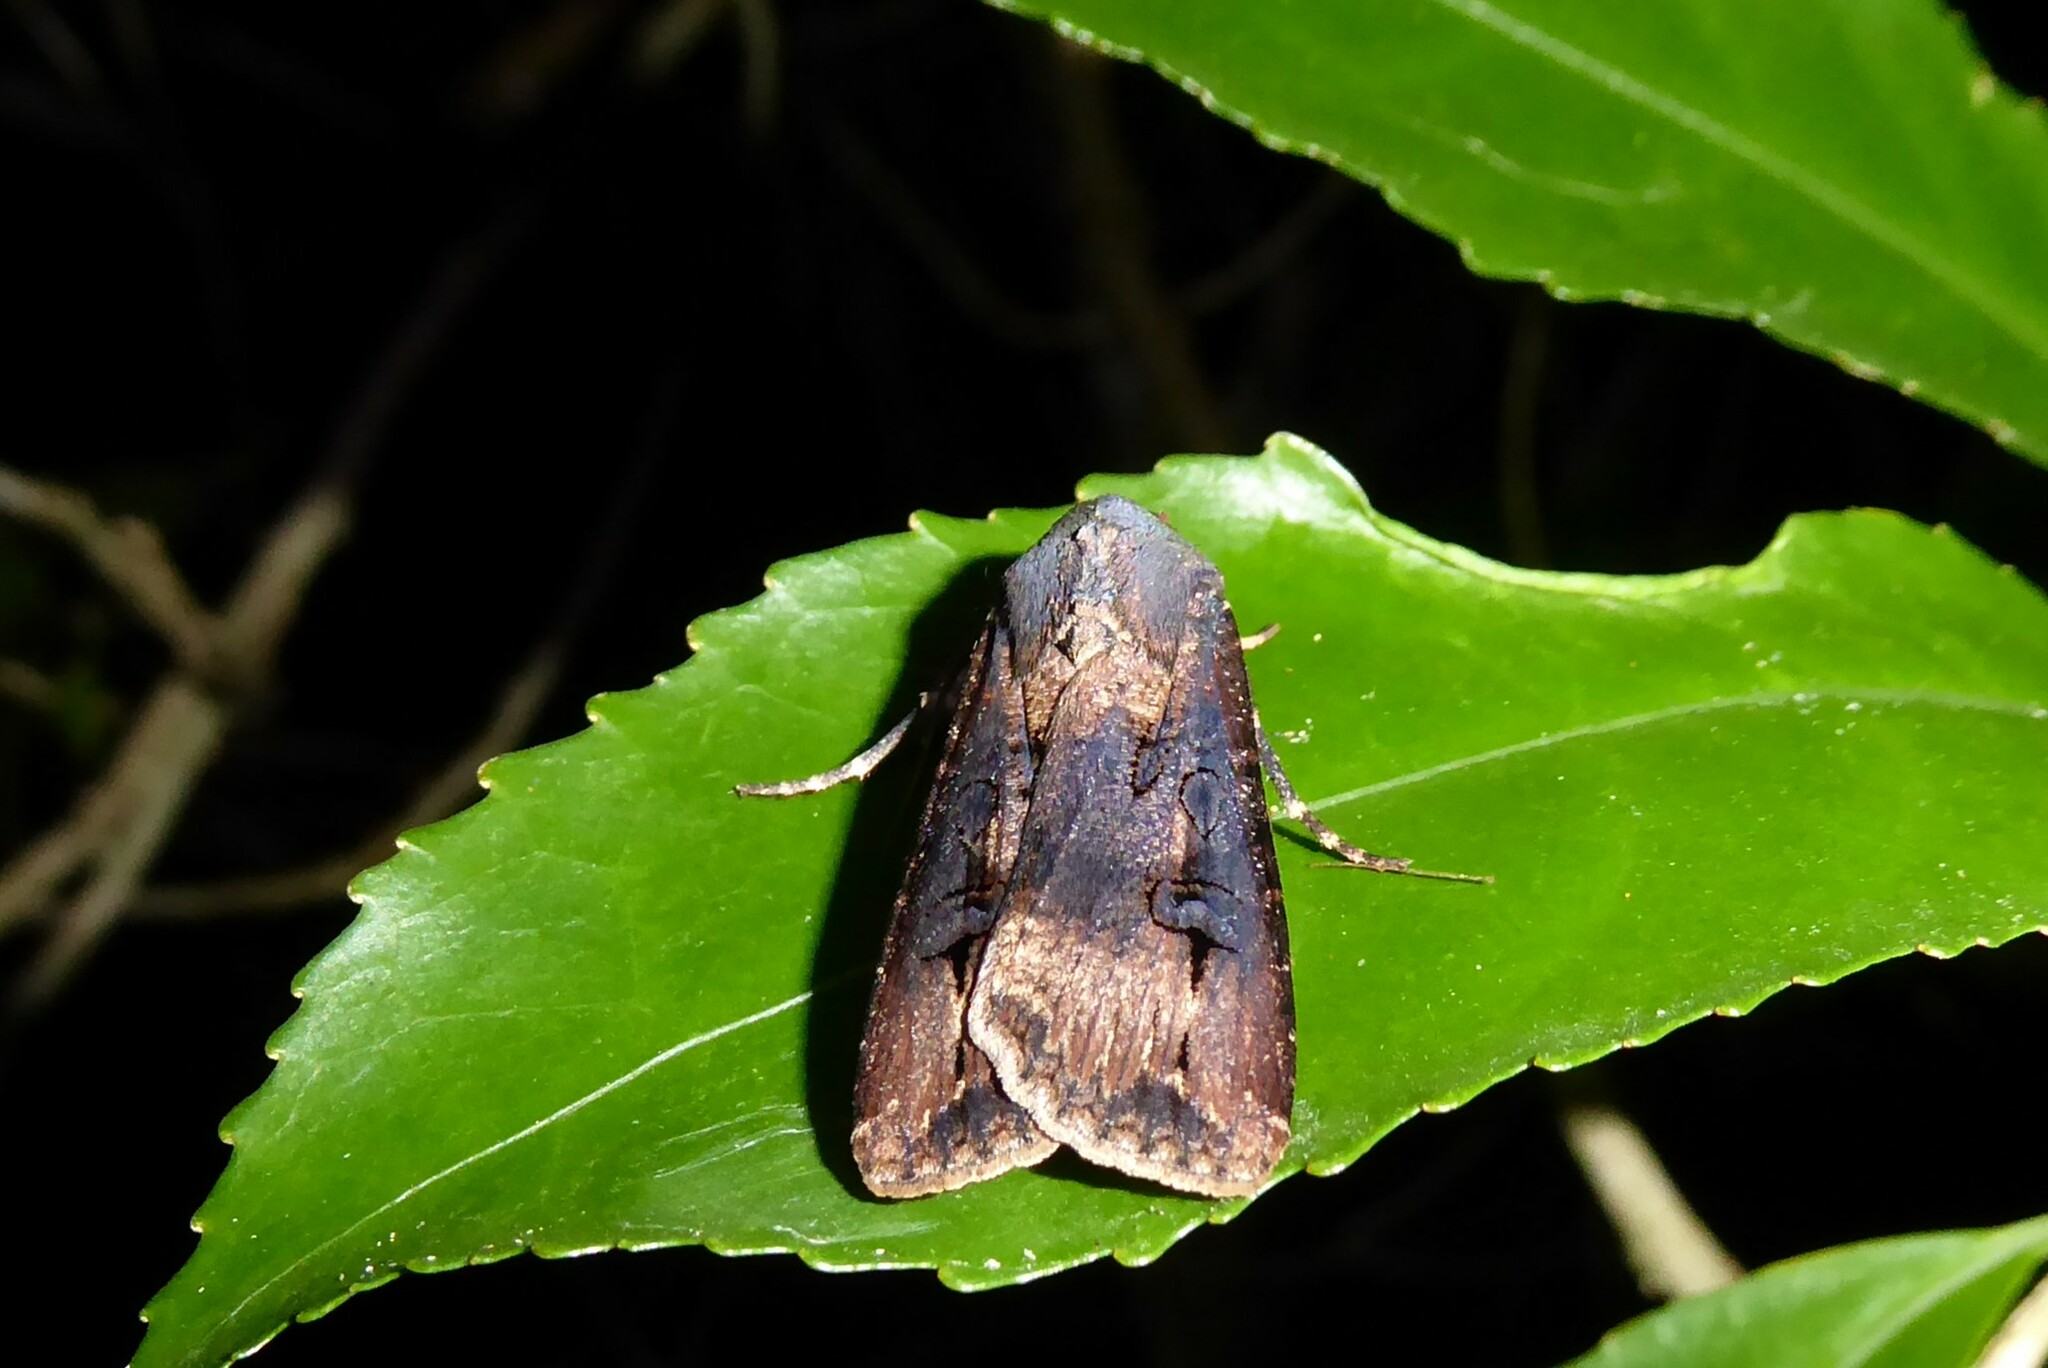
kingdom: Animalia
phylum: Arthropoda
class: Insecta
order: Lepidoptera
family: Noctuidae
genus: Agrotis
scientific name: Agrotis ipsilon
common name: Dark sword-grass
